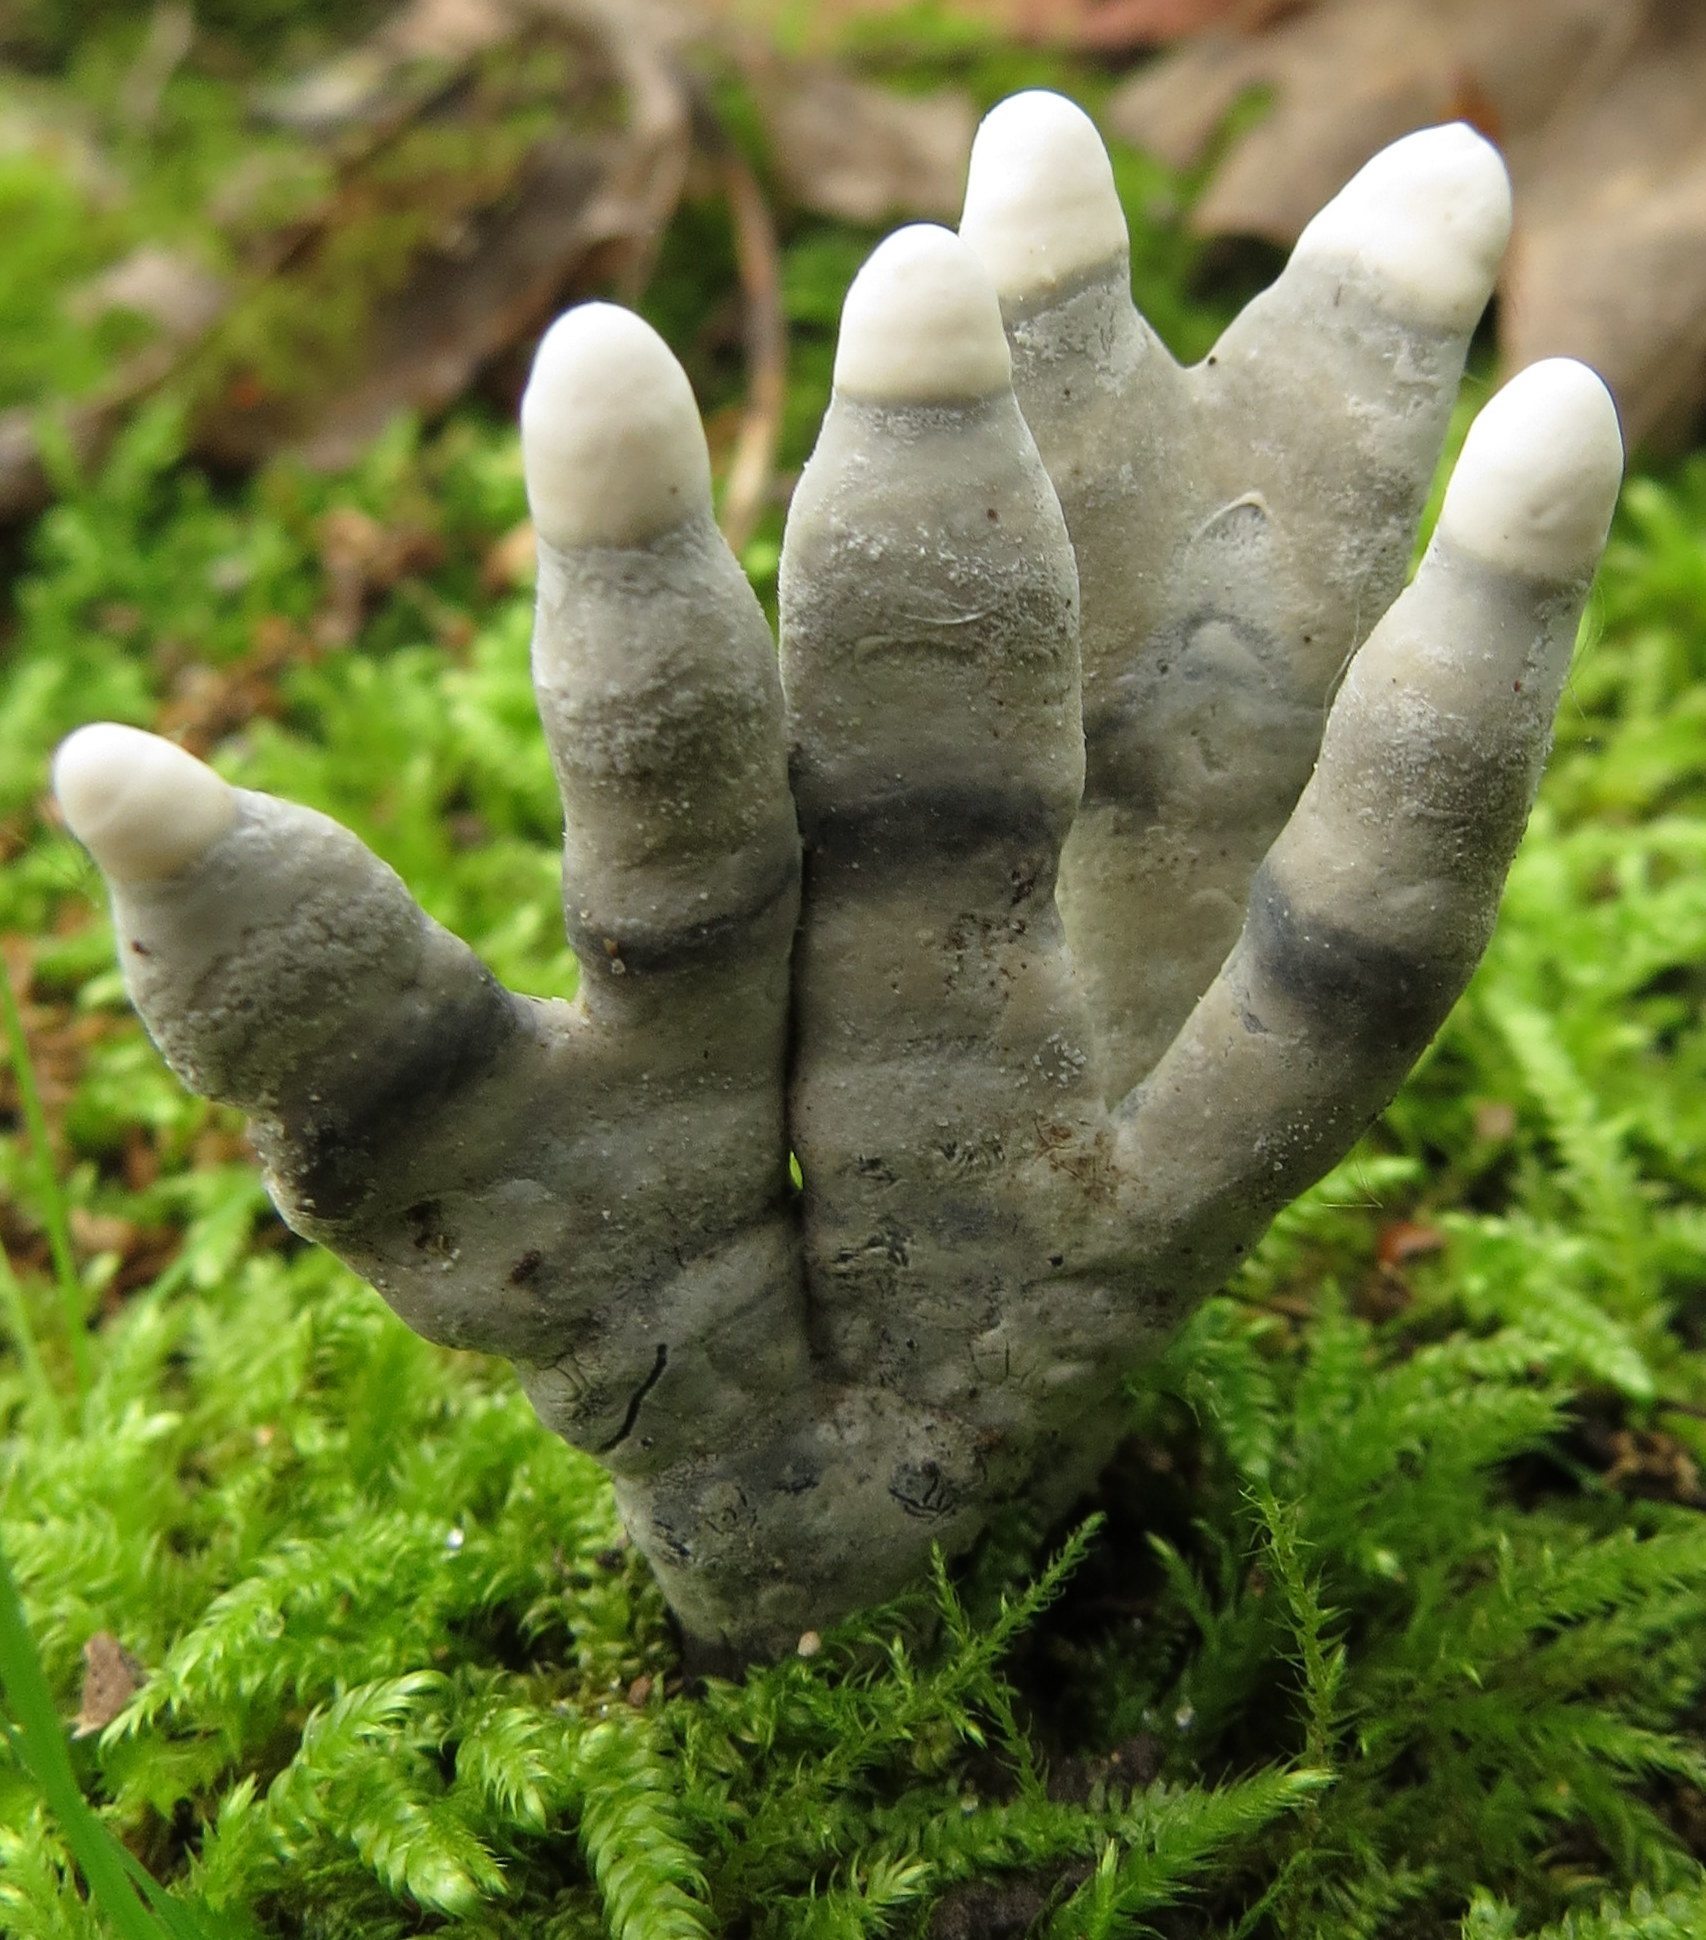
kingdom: Fungi
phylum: Ascomycota
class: Sordariomycetes
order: Xylariales
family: Xylariaceae
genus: Xylaria
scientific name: Xylaria polymorpha
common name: Dead man's fingers
